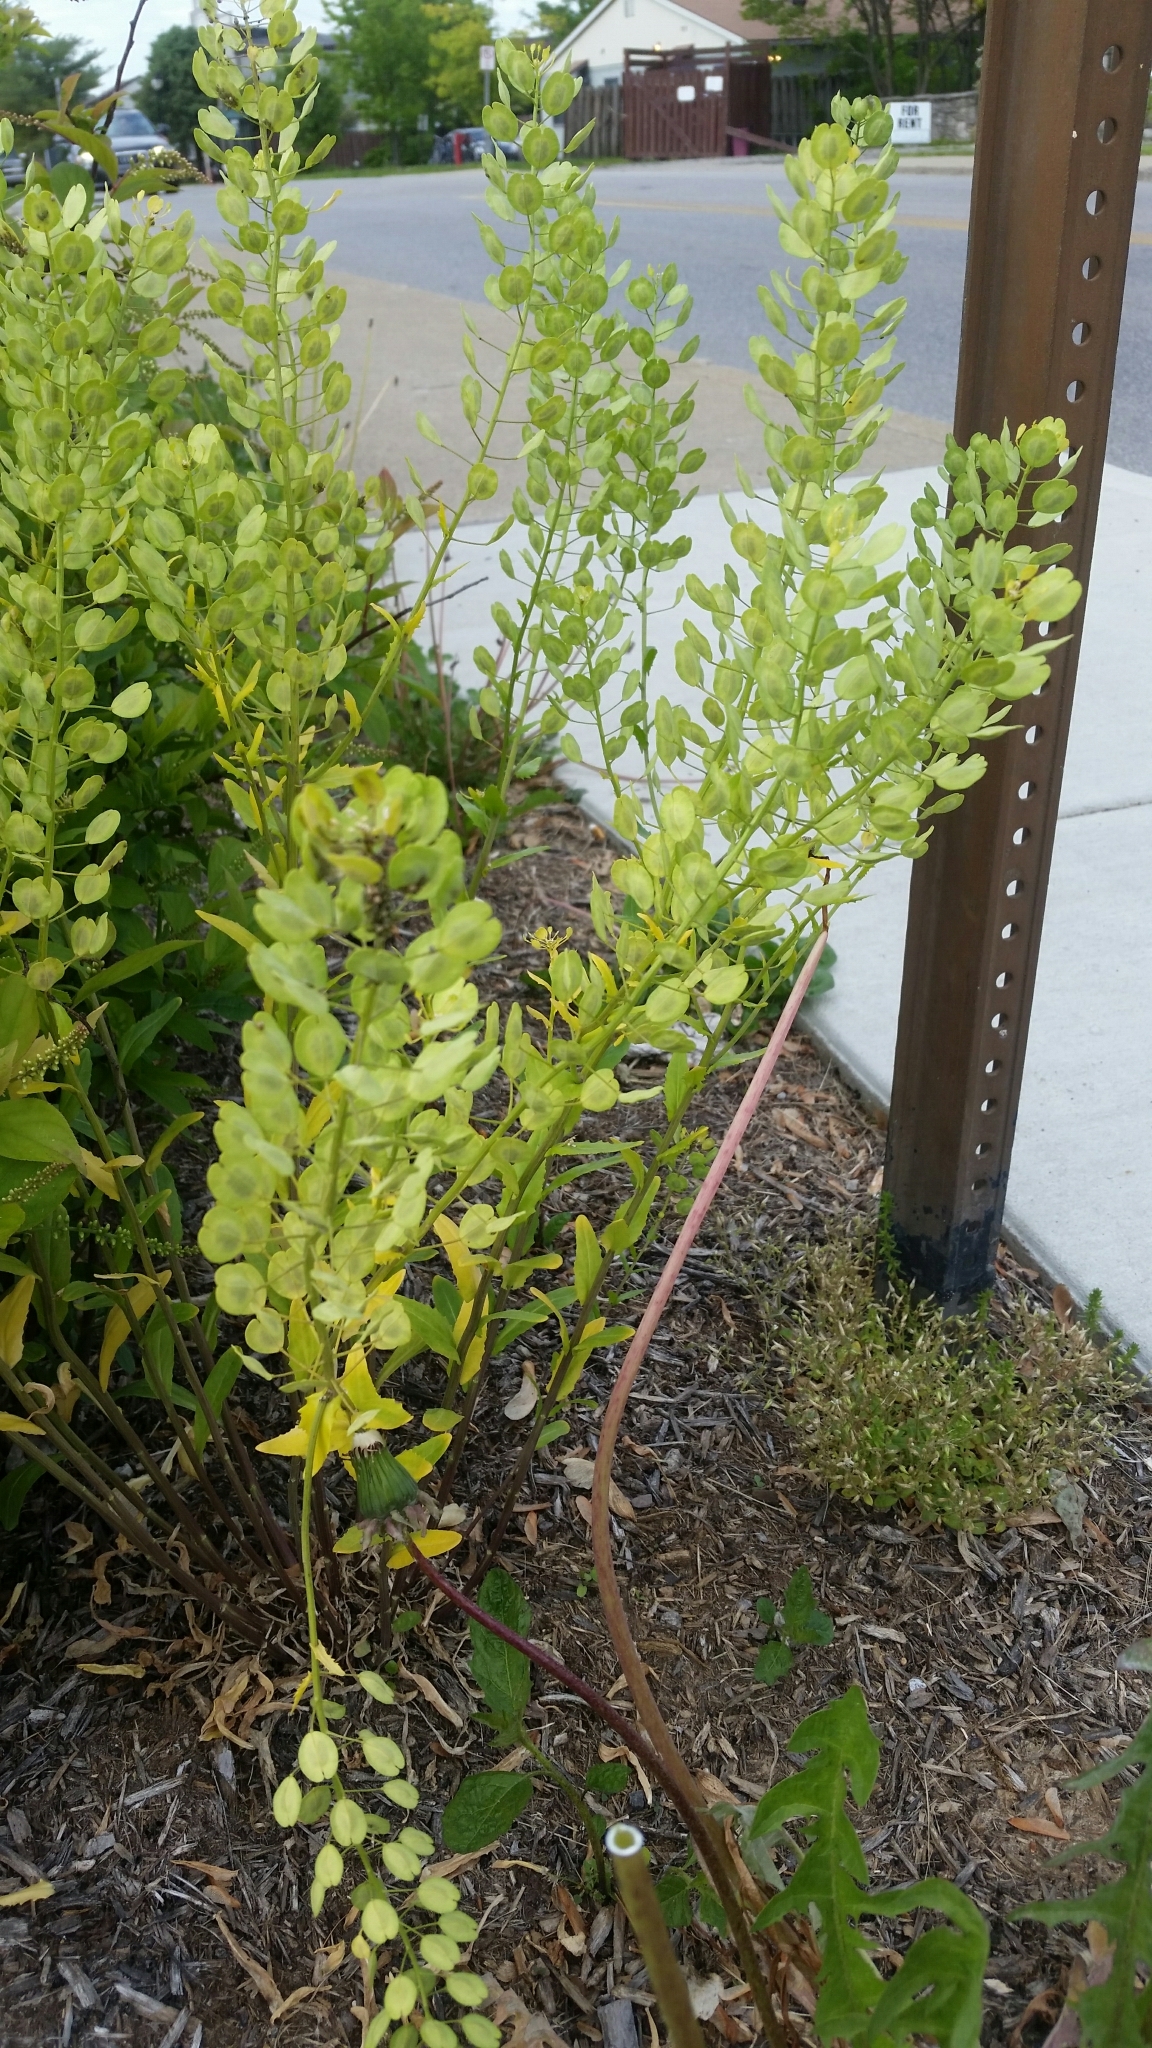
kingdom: Plantae
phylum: Tracheophyta
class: Magnoliopsida
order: Brassicales
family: Brassicaceae
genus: Thlaspi
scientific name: Thlaspi arvense
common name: Field pennycress
